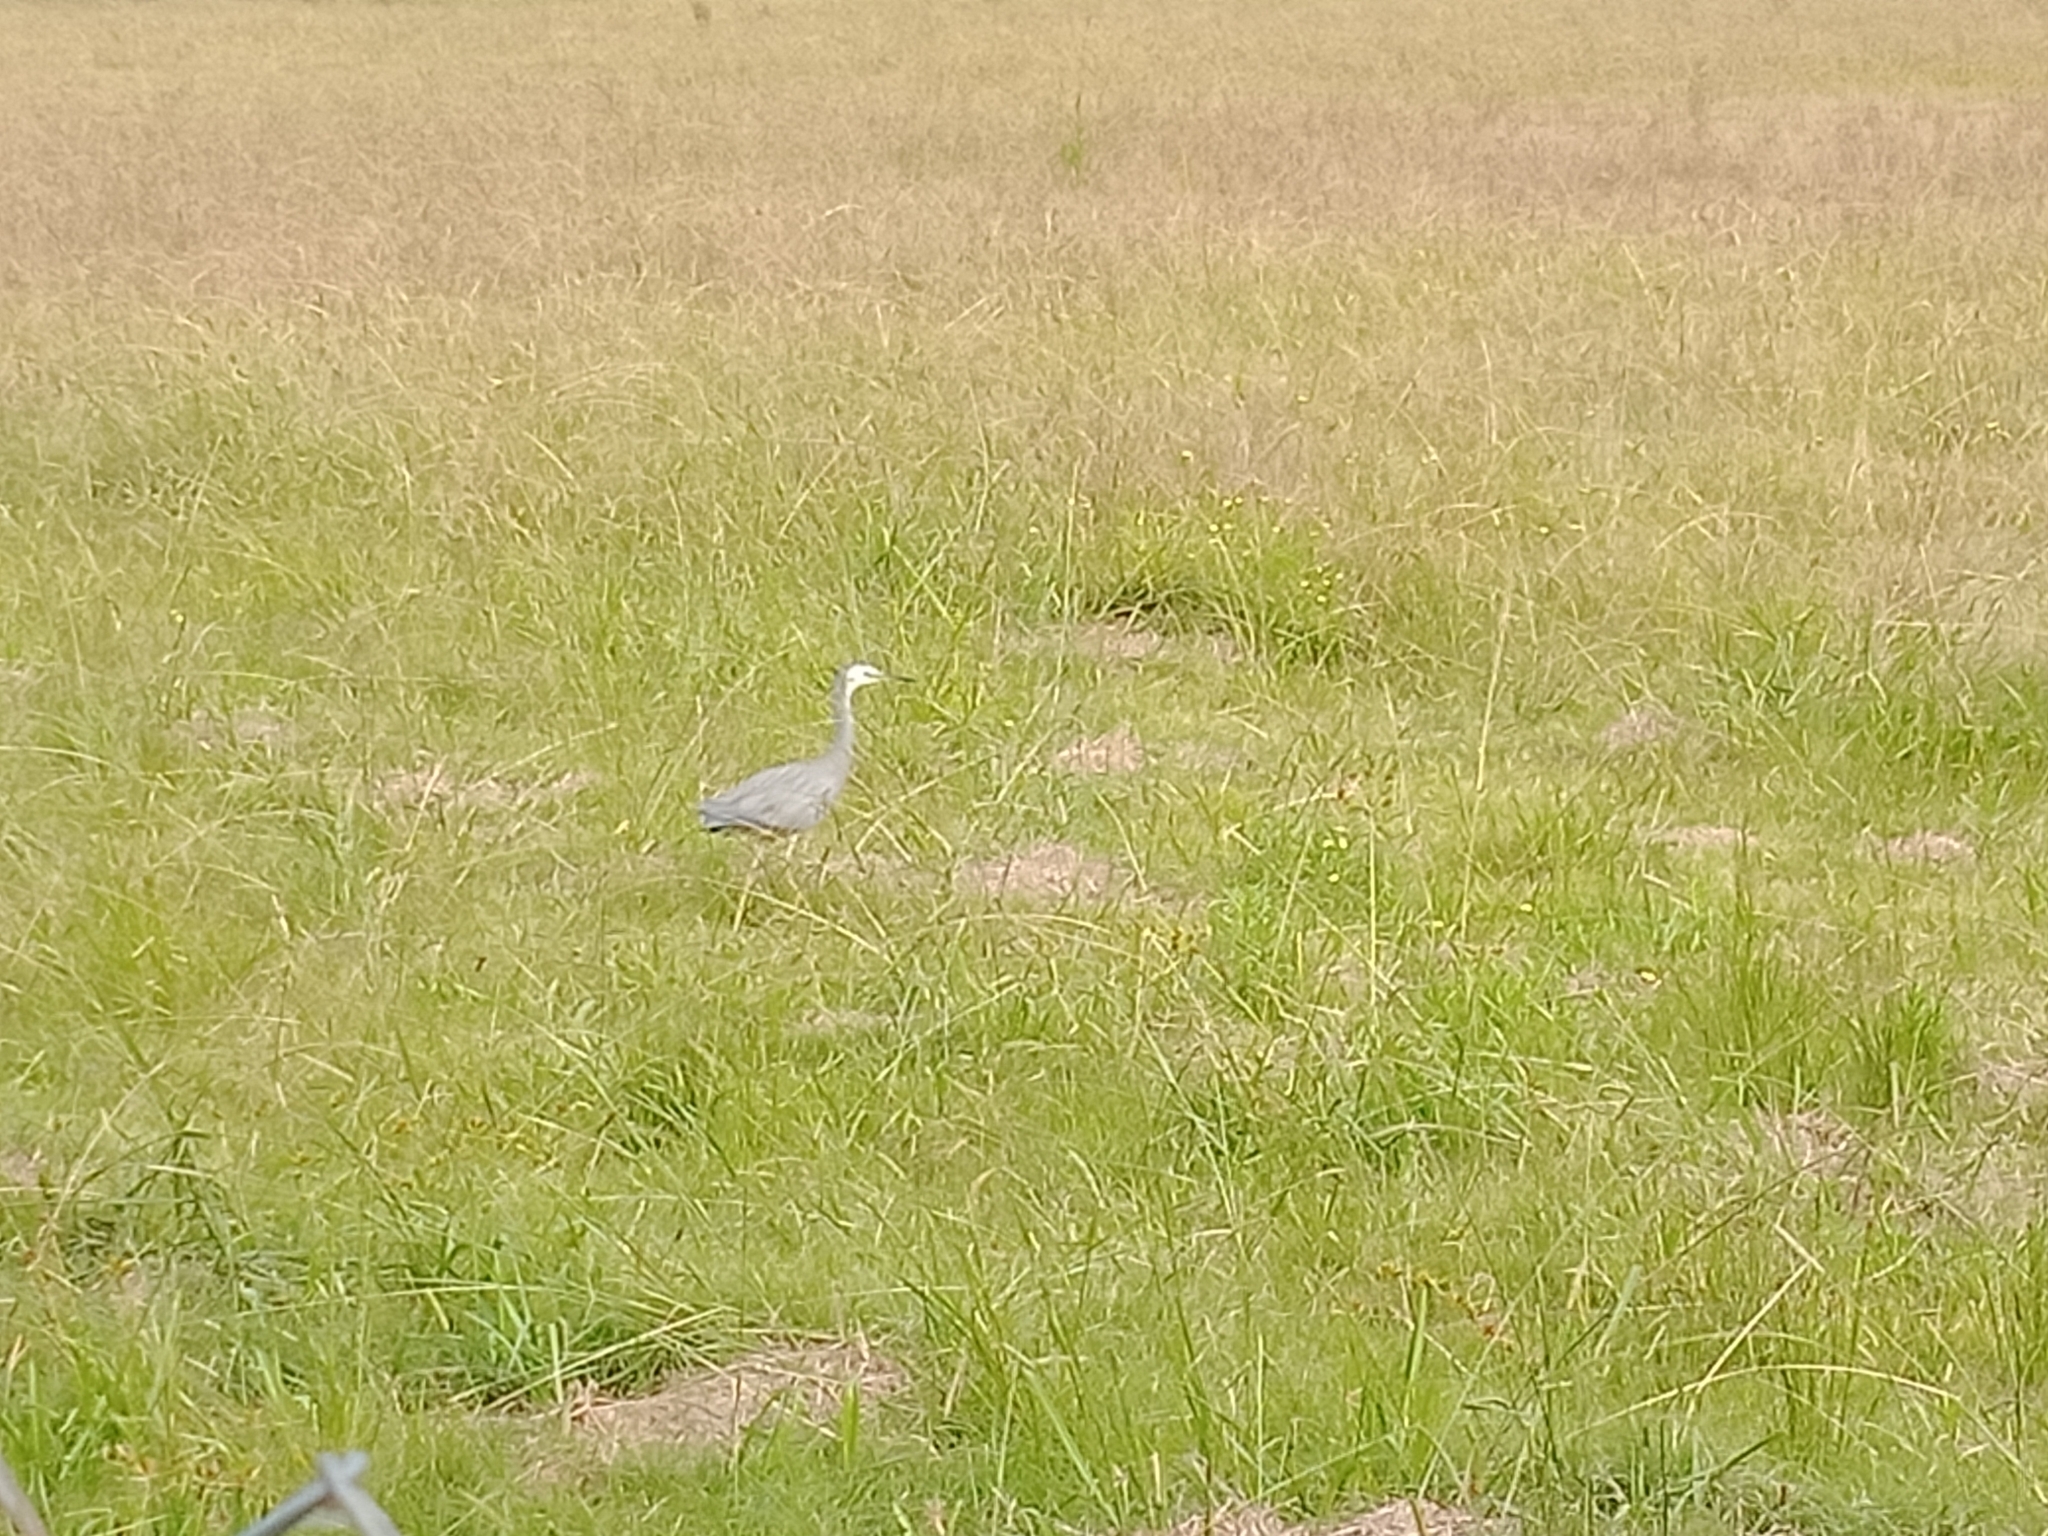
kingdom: Animalia
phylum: Chordata
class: Aves
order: Pelecaniformes
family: Ardeidae
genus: Egretta
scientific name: Egretta novaehollandiae
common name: White-faced heron
